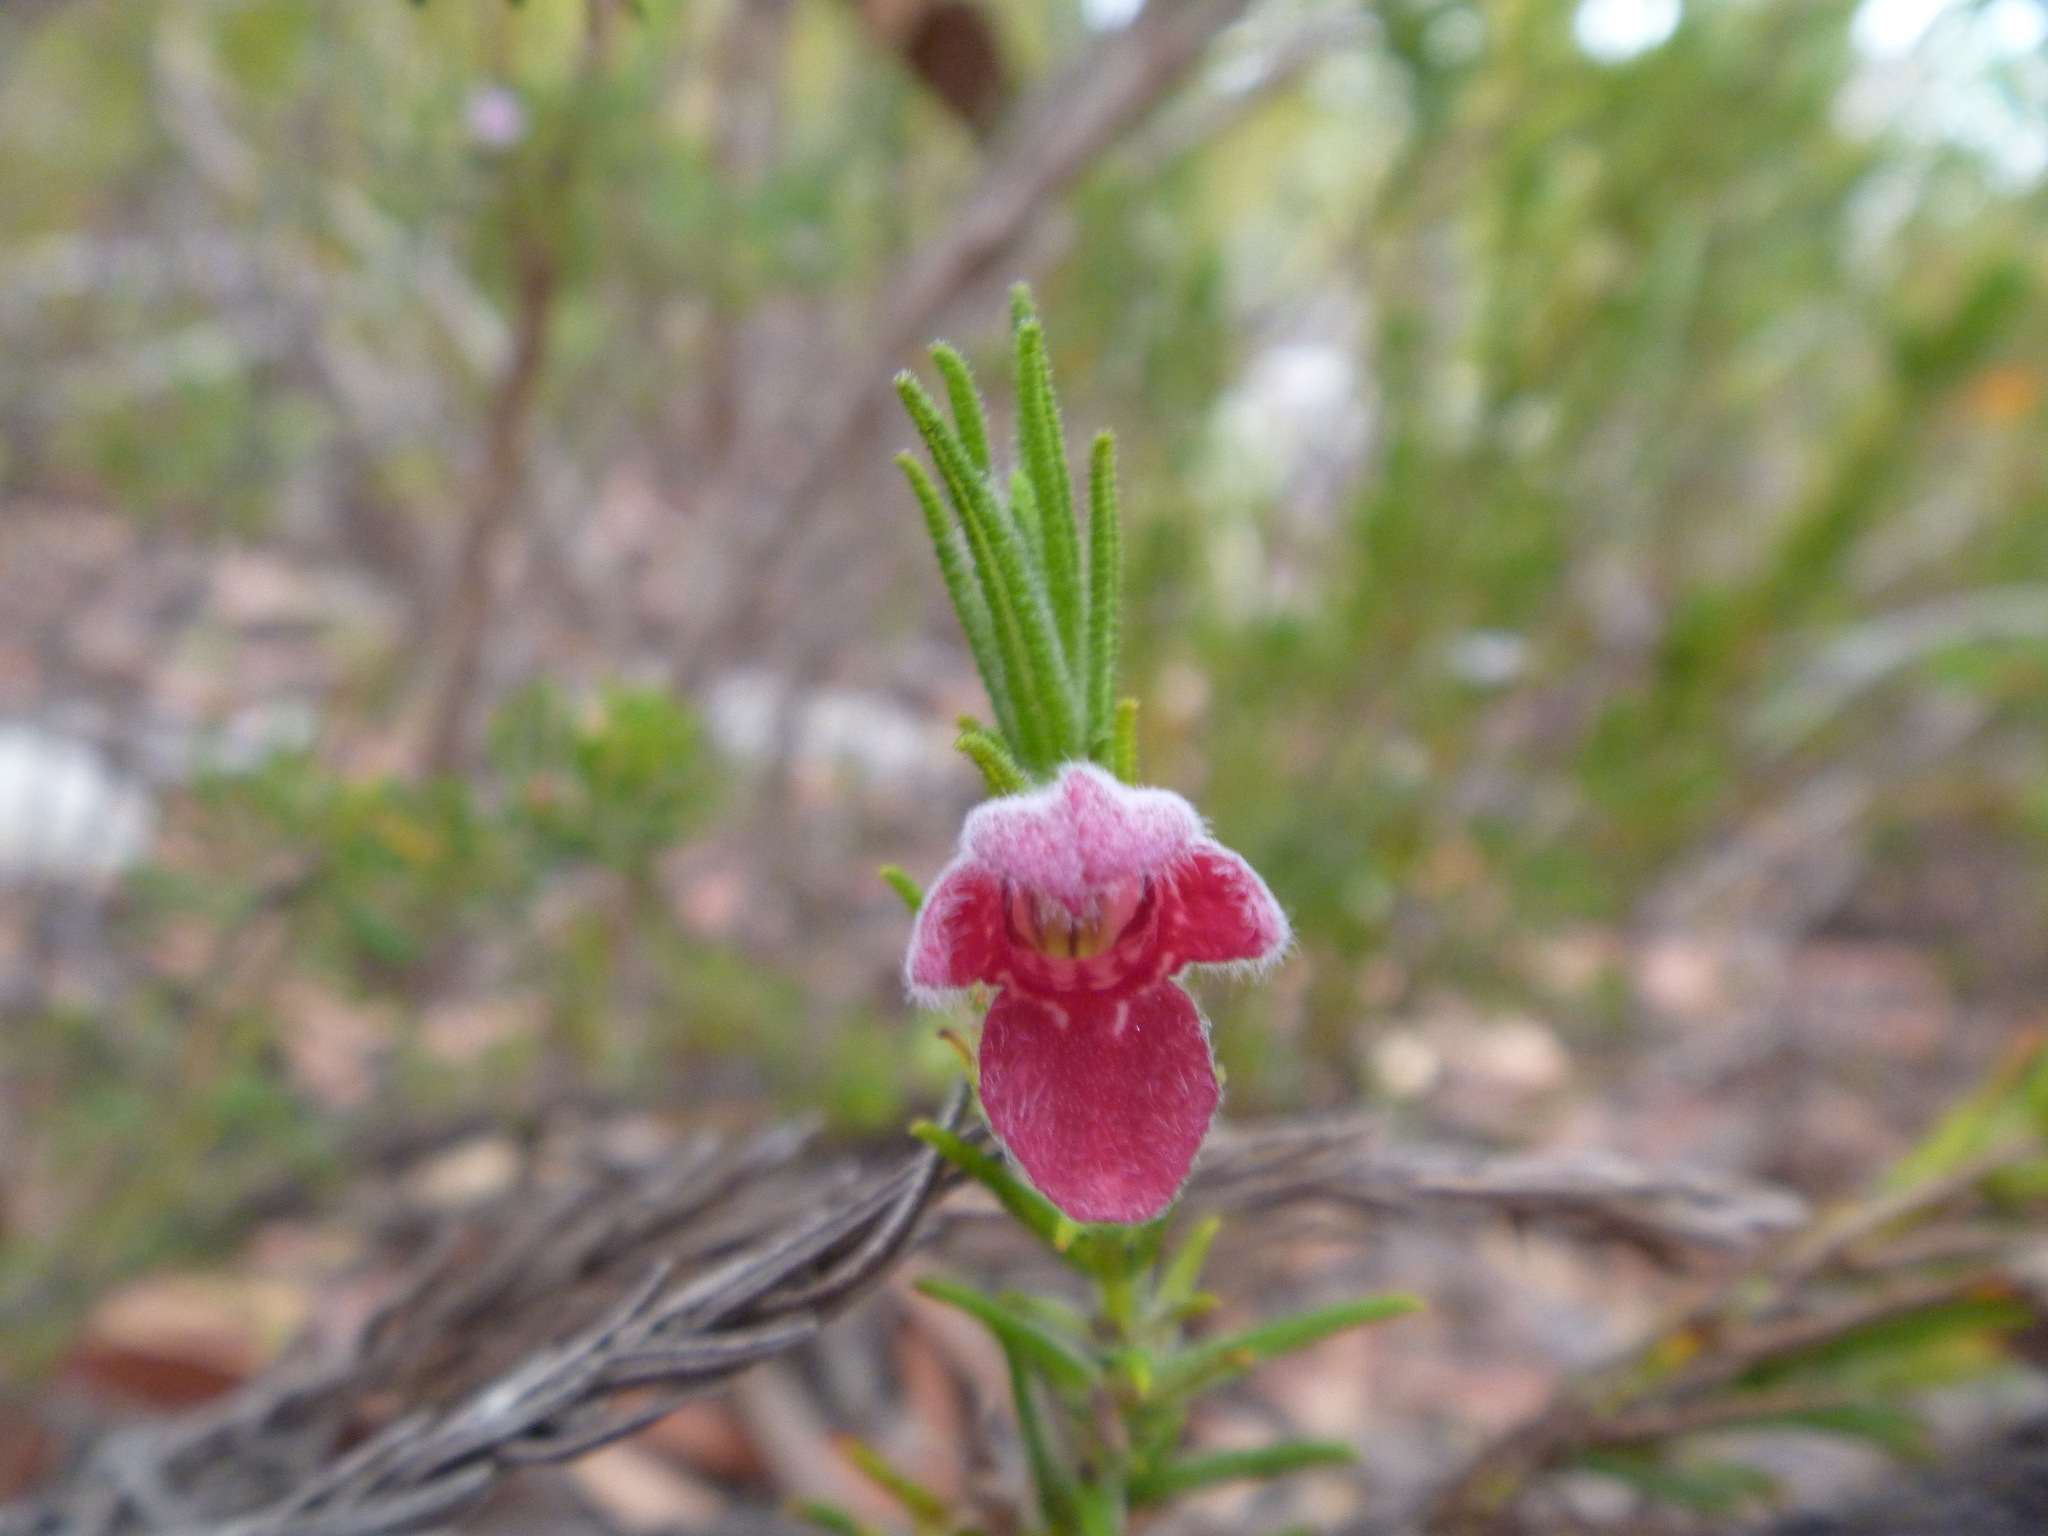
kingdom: Plantae
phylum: Tracheophyta
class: Magnoliopsida
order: Lamiales
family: Lamiaceae
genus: Chloanthes
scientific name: Chloanthes coccinea
